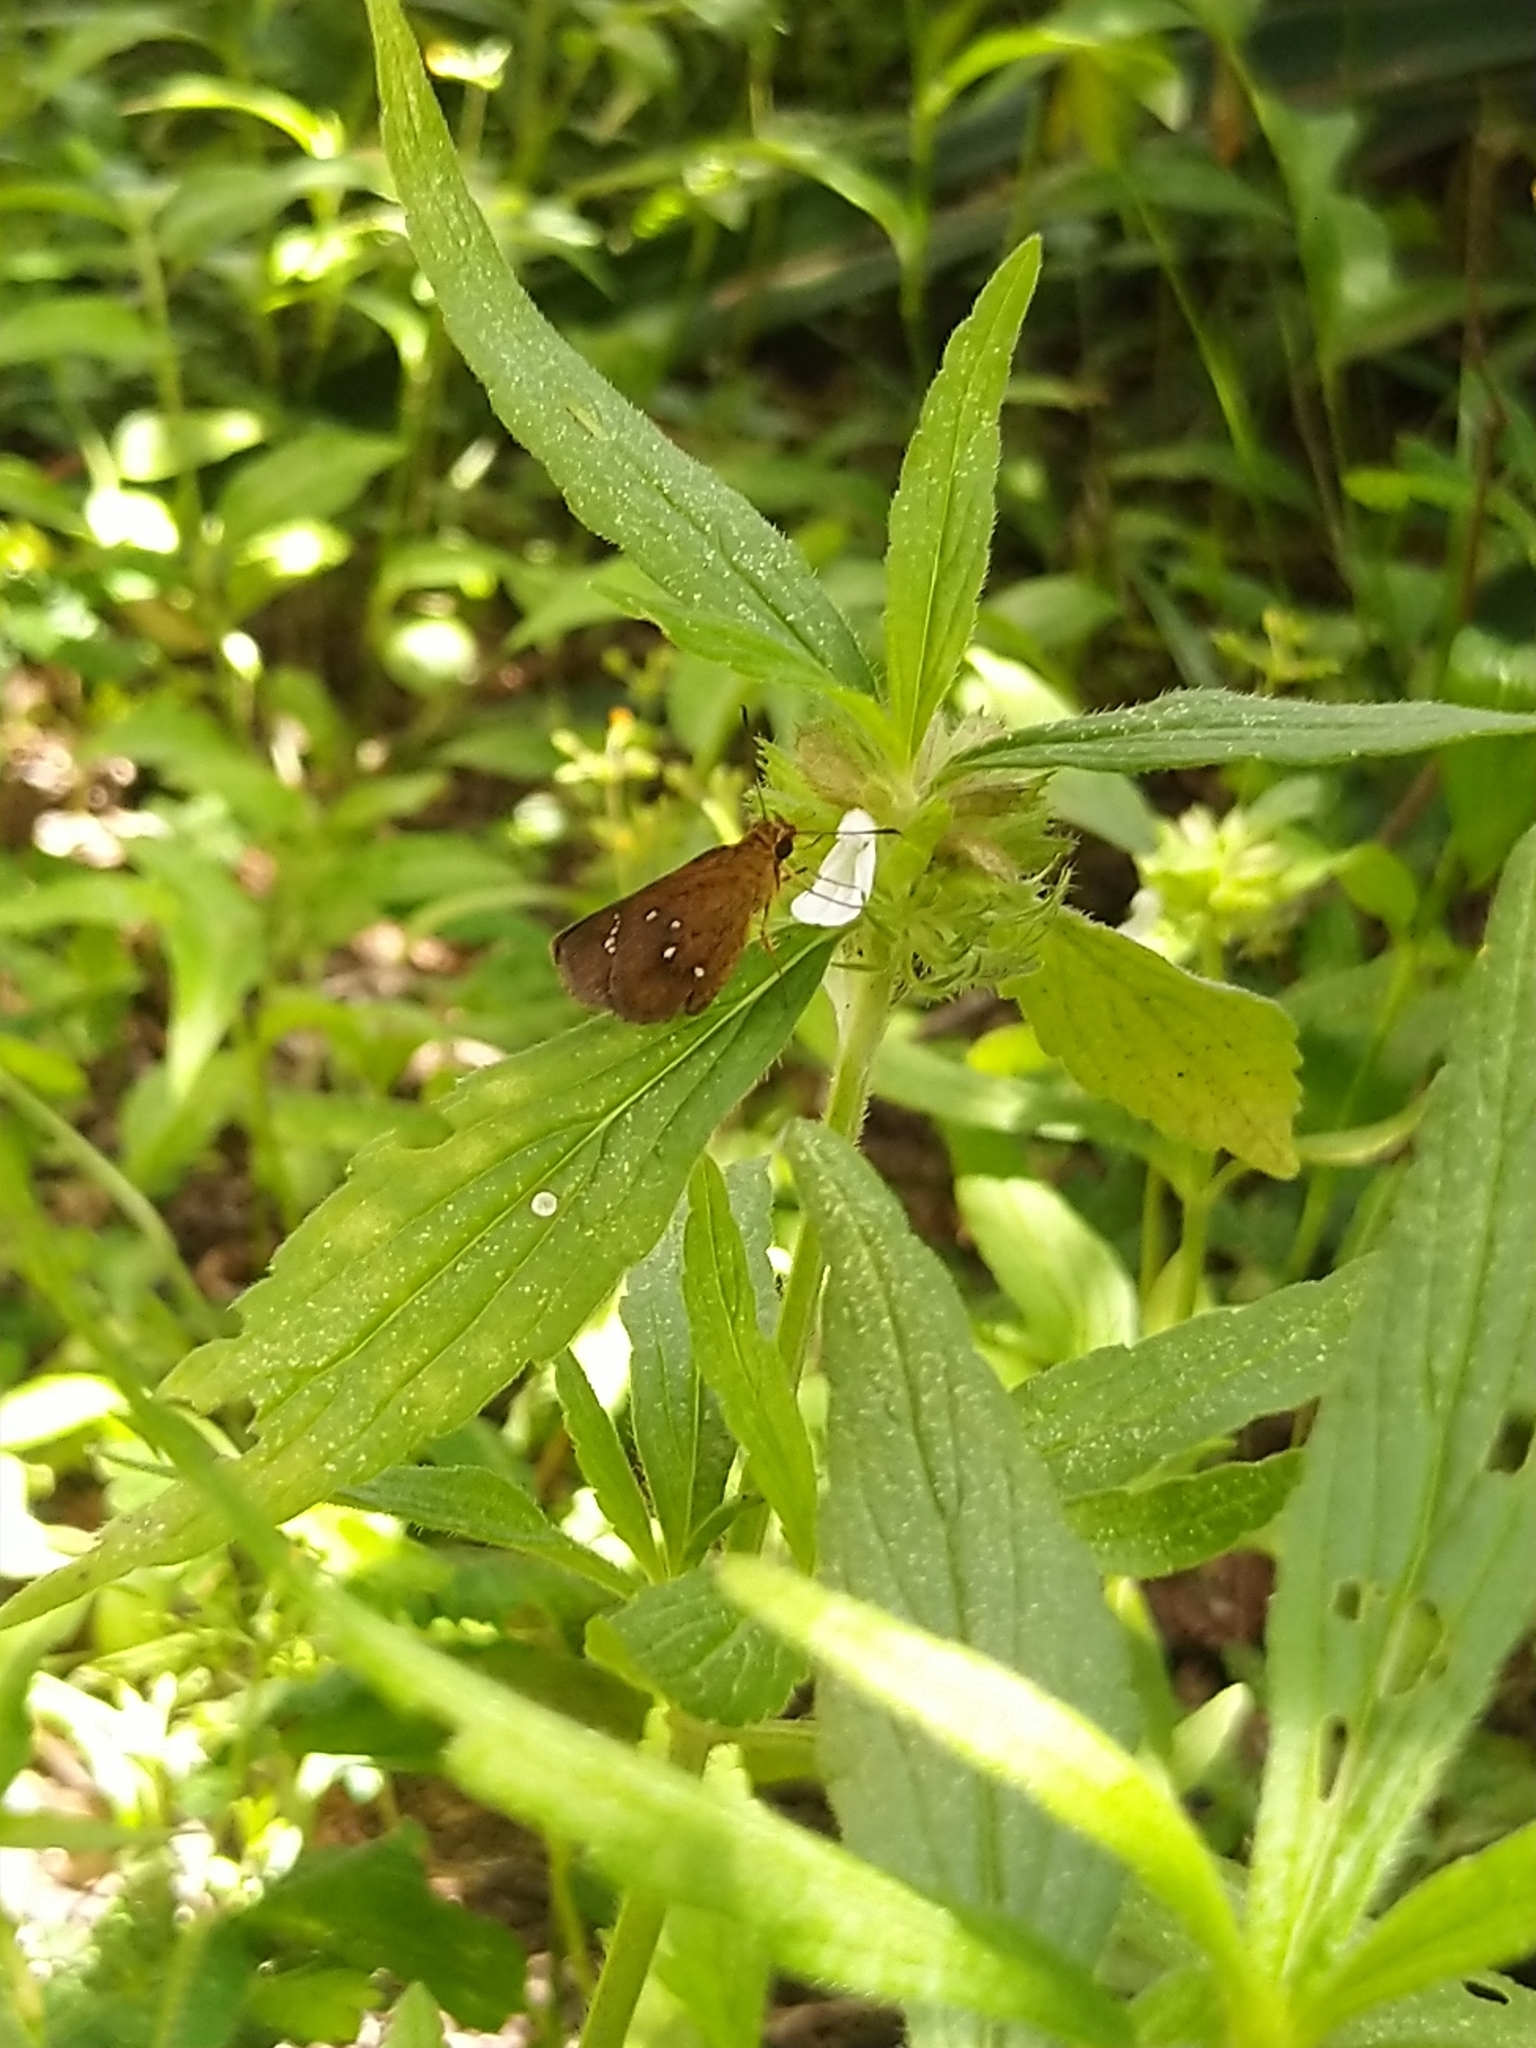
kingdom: Animalia
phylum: Arthropoda
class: Insecta
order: Lepidoptera
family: Hesperiidae
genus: Iambrix
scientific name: Iambrix salsala
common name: Chestnut bob
